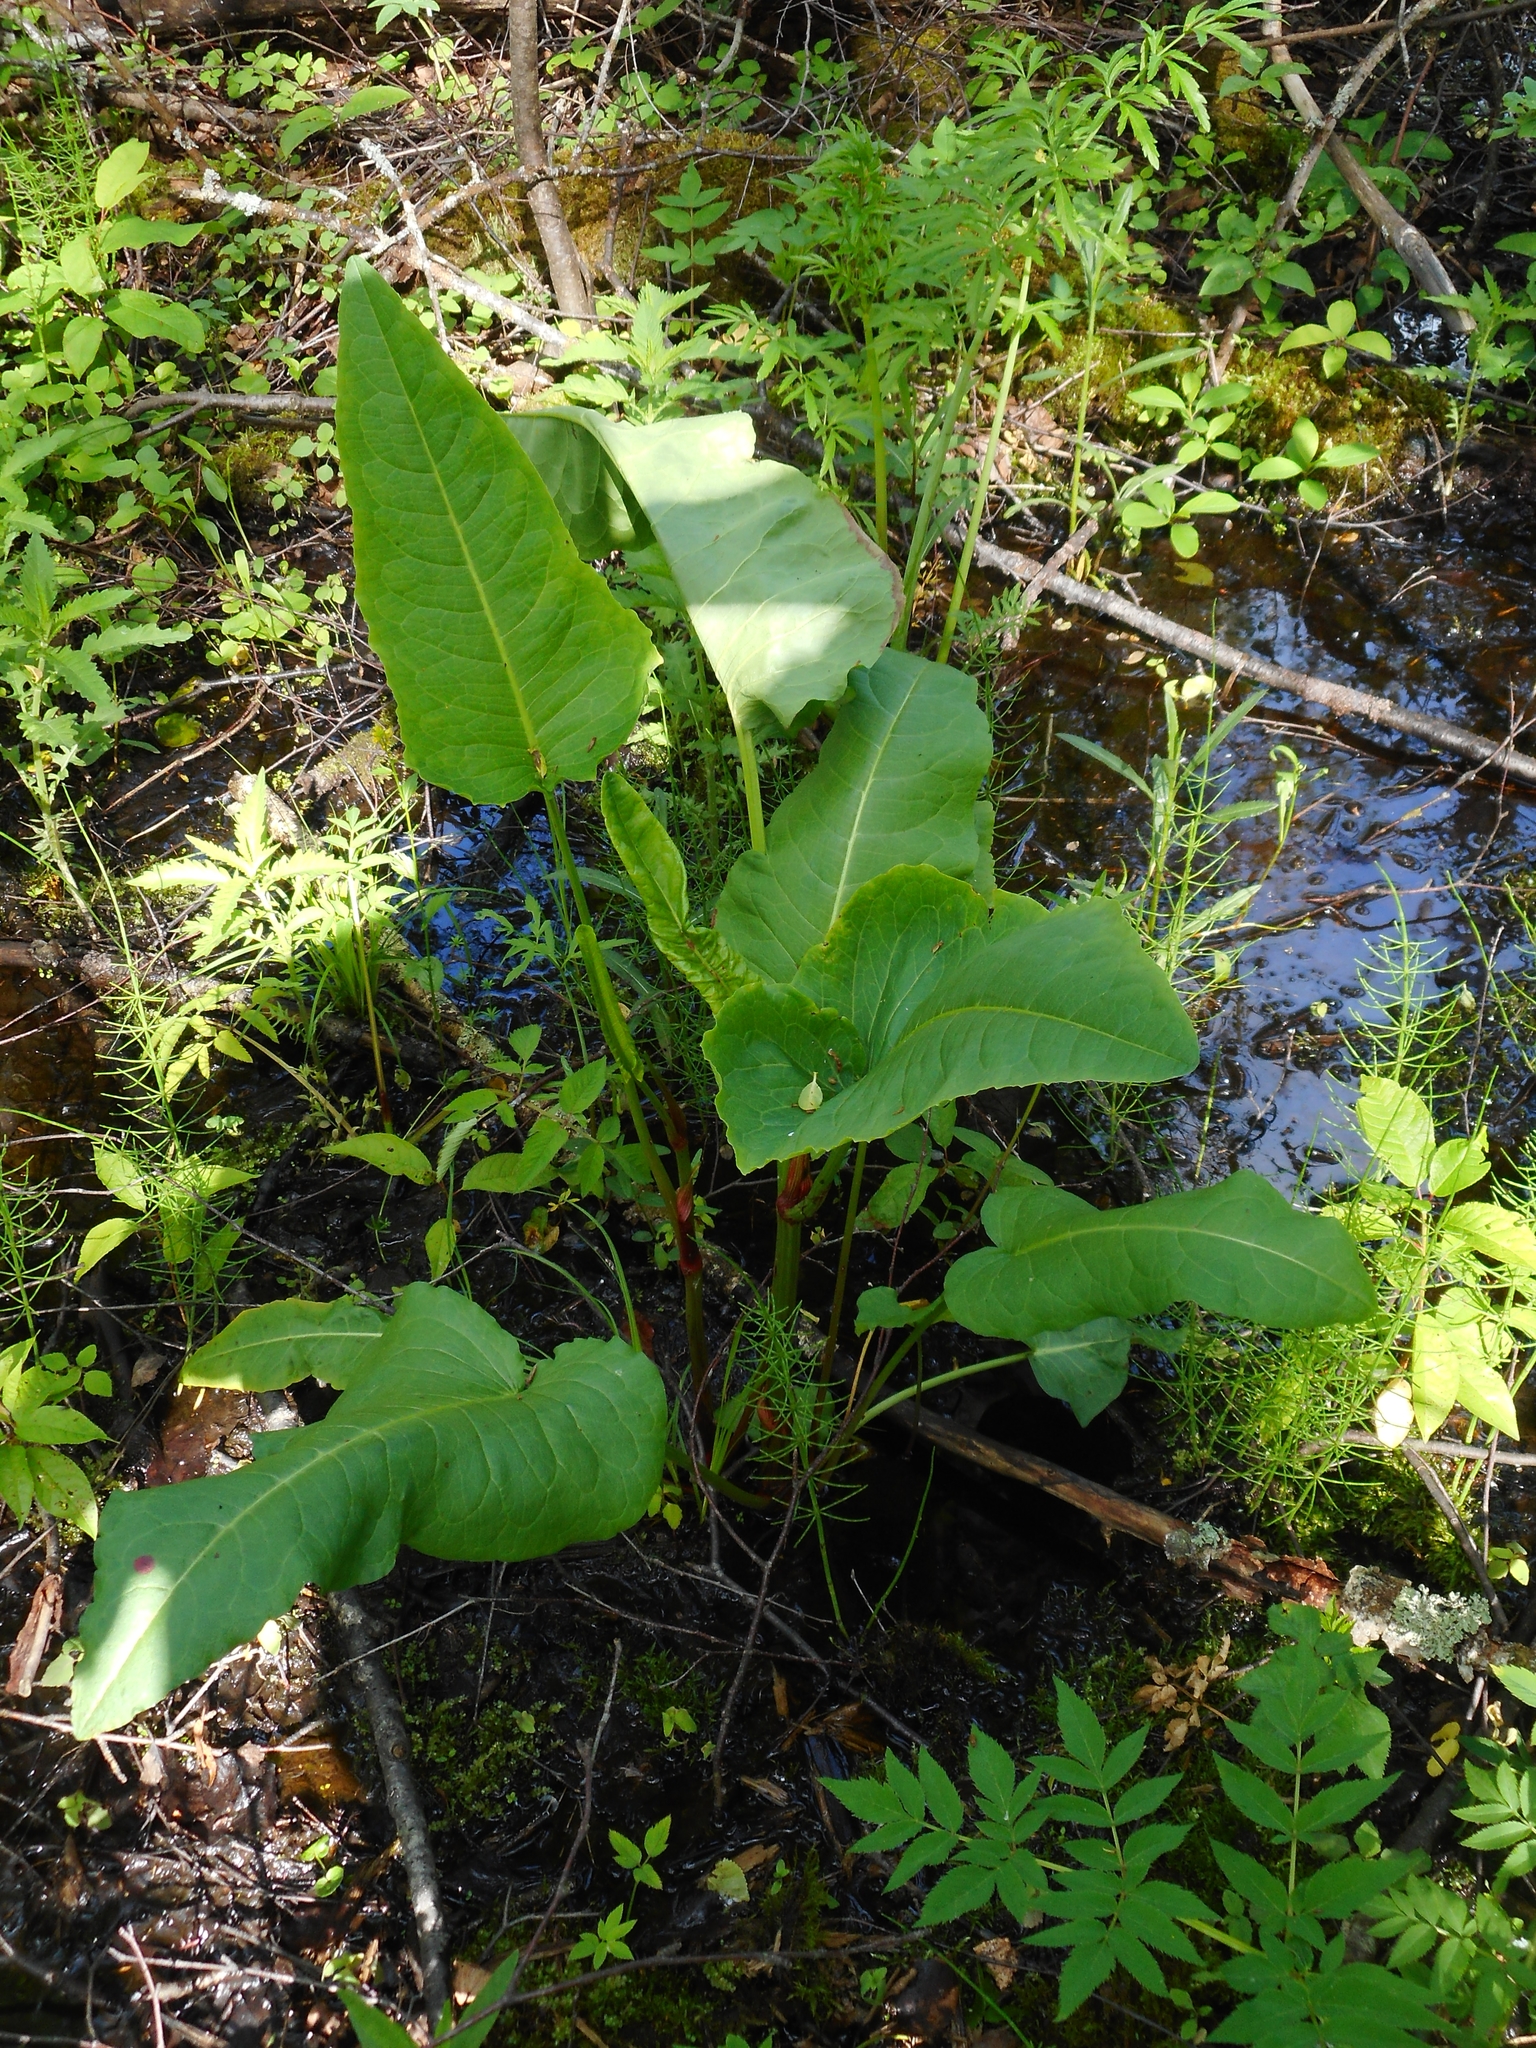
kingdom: Plantae
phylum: Tracheophyta
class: Magnoliopsida
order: Caryophyllales
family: Polygonaceae
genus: Rumex
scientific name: Rumex aquaticus
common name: Scottish dock
